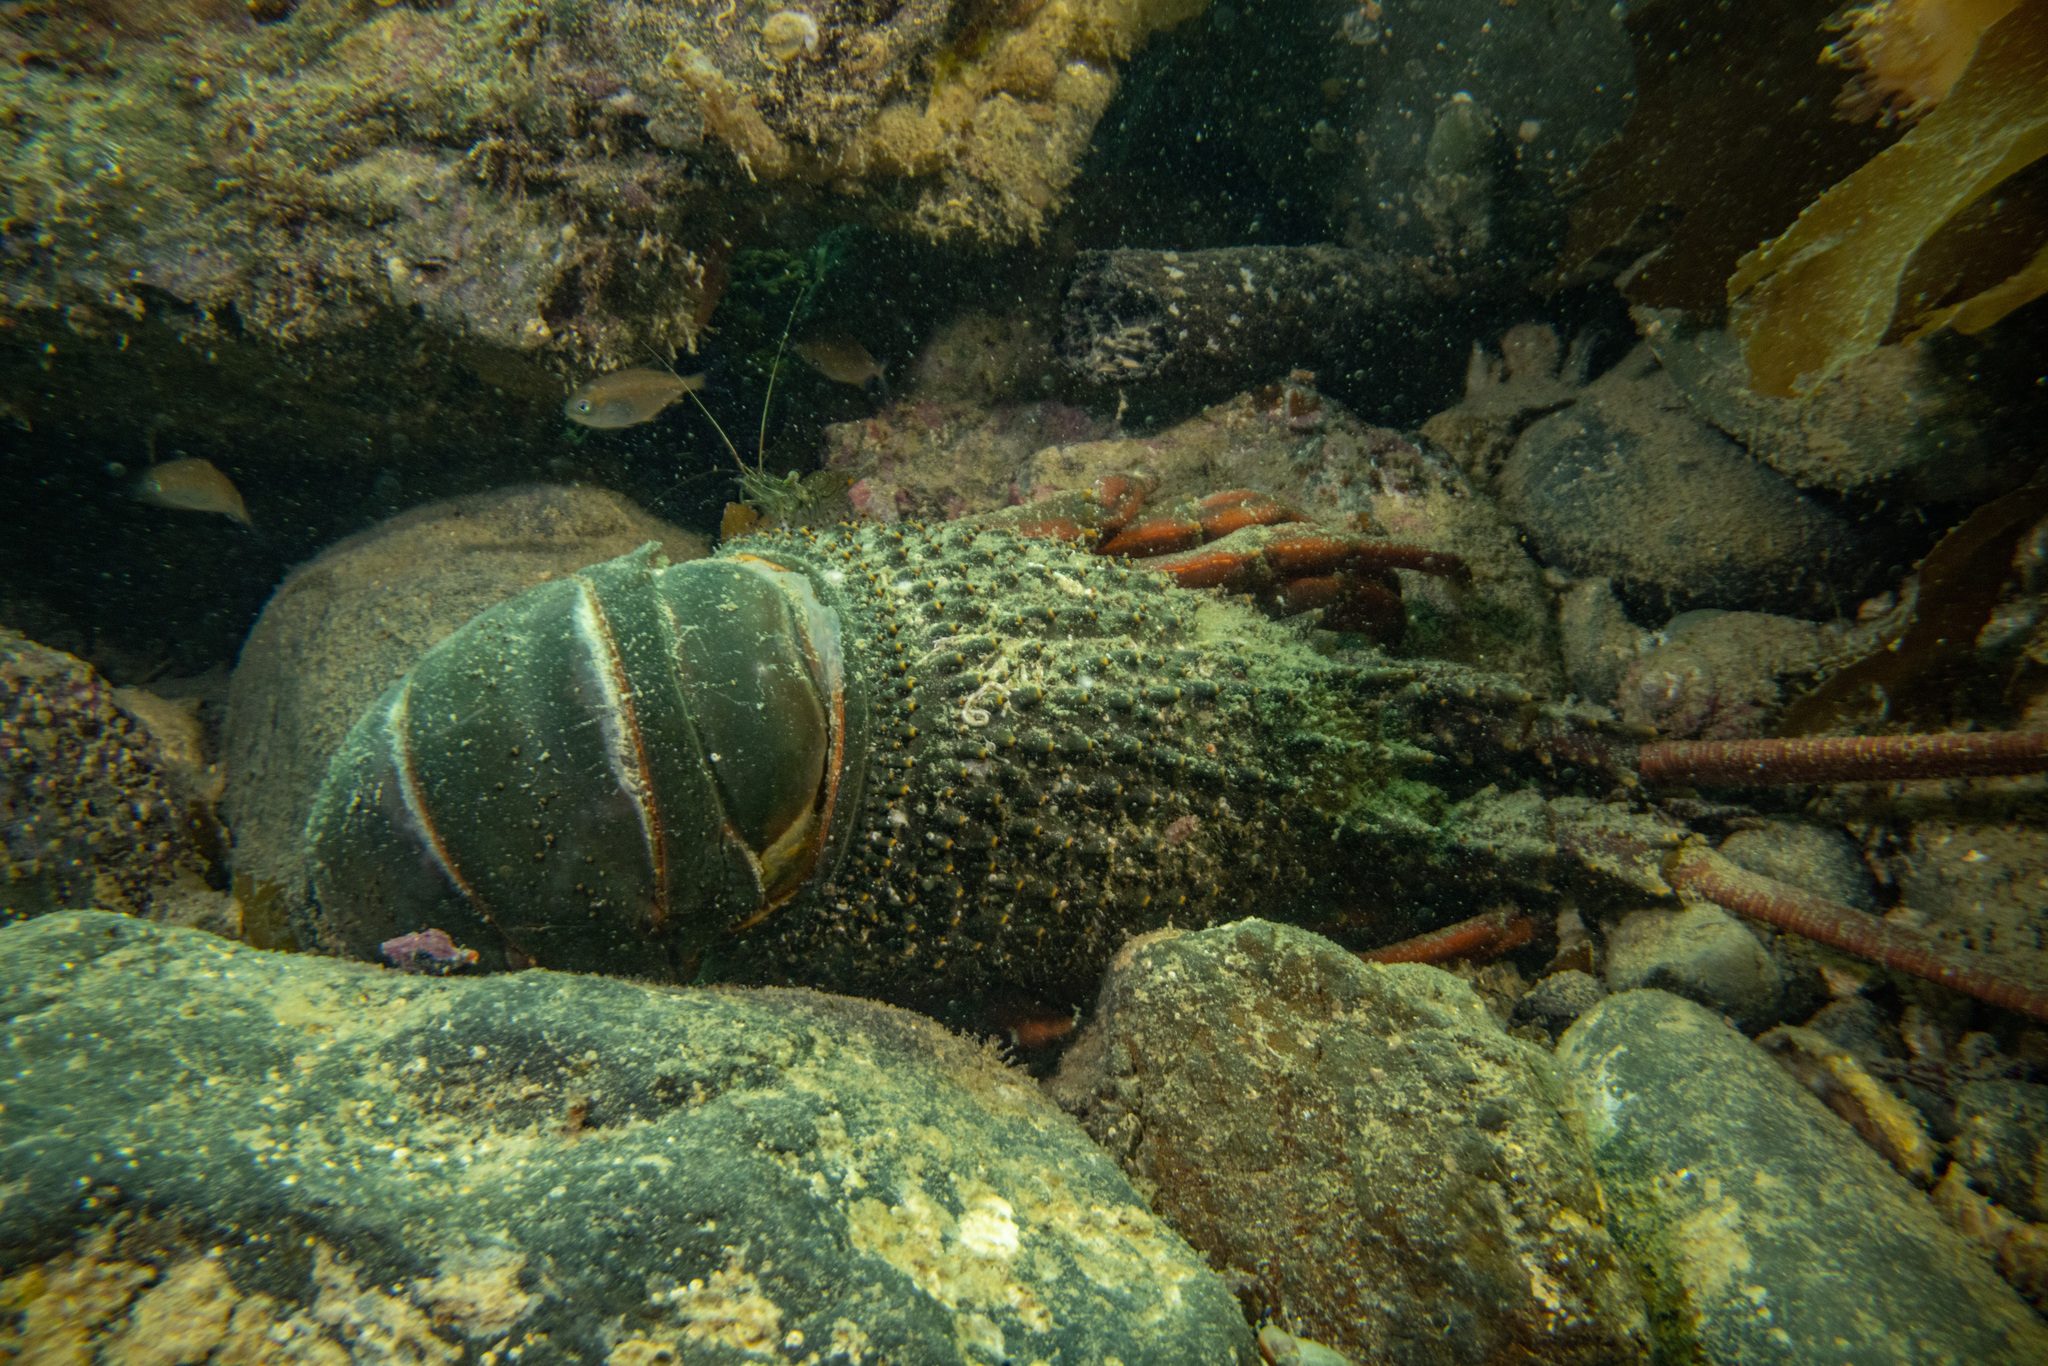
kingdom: Animalia
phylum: Arthropoda
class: Malacostraca
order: Decapoda
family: Palinuridae
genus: Sagmariasus
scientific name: Sagmariasus verreauxi
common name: Green rock lobster
